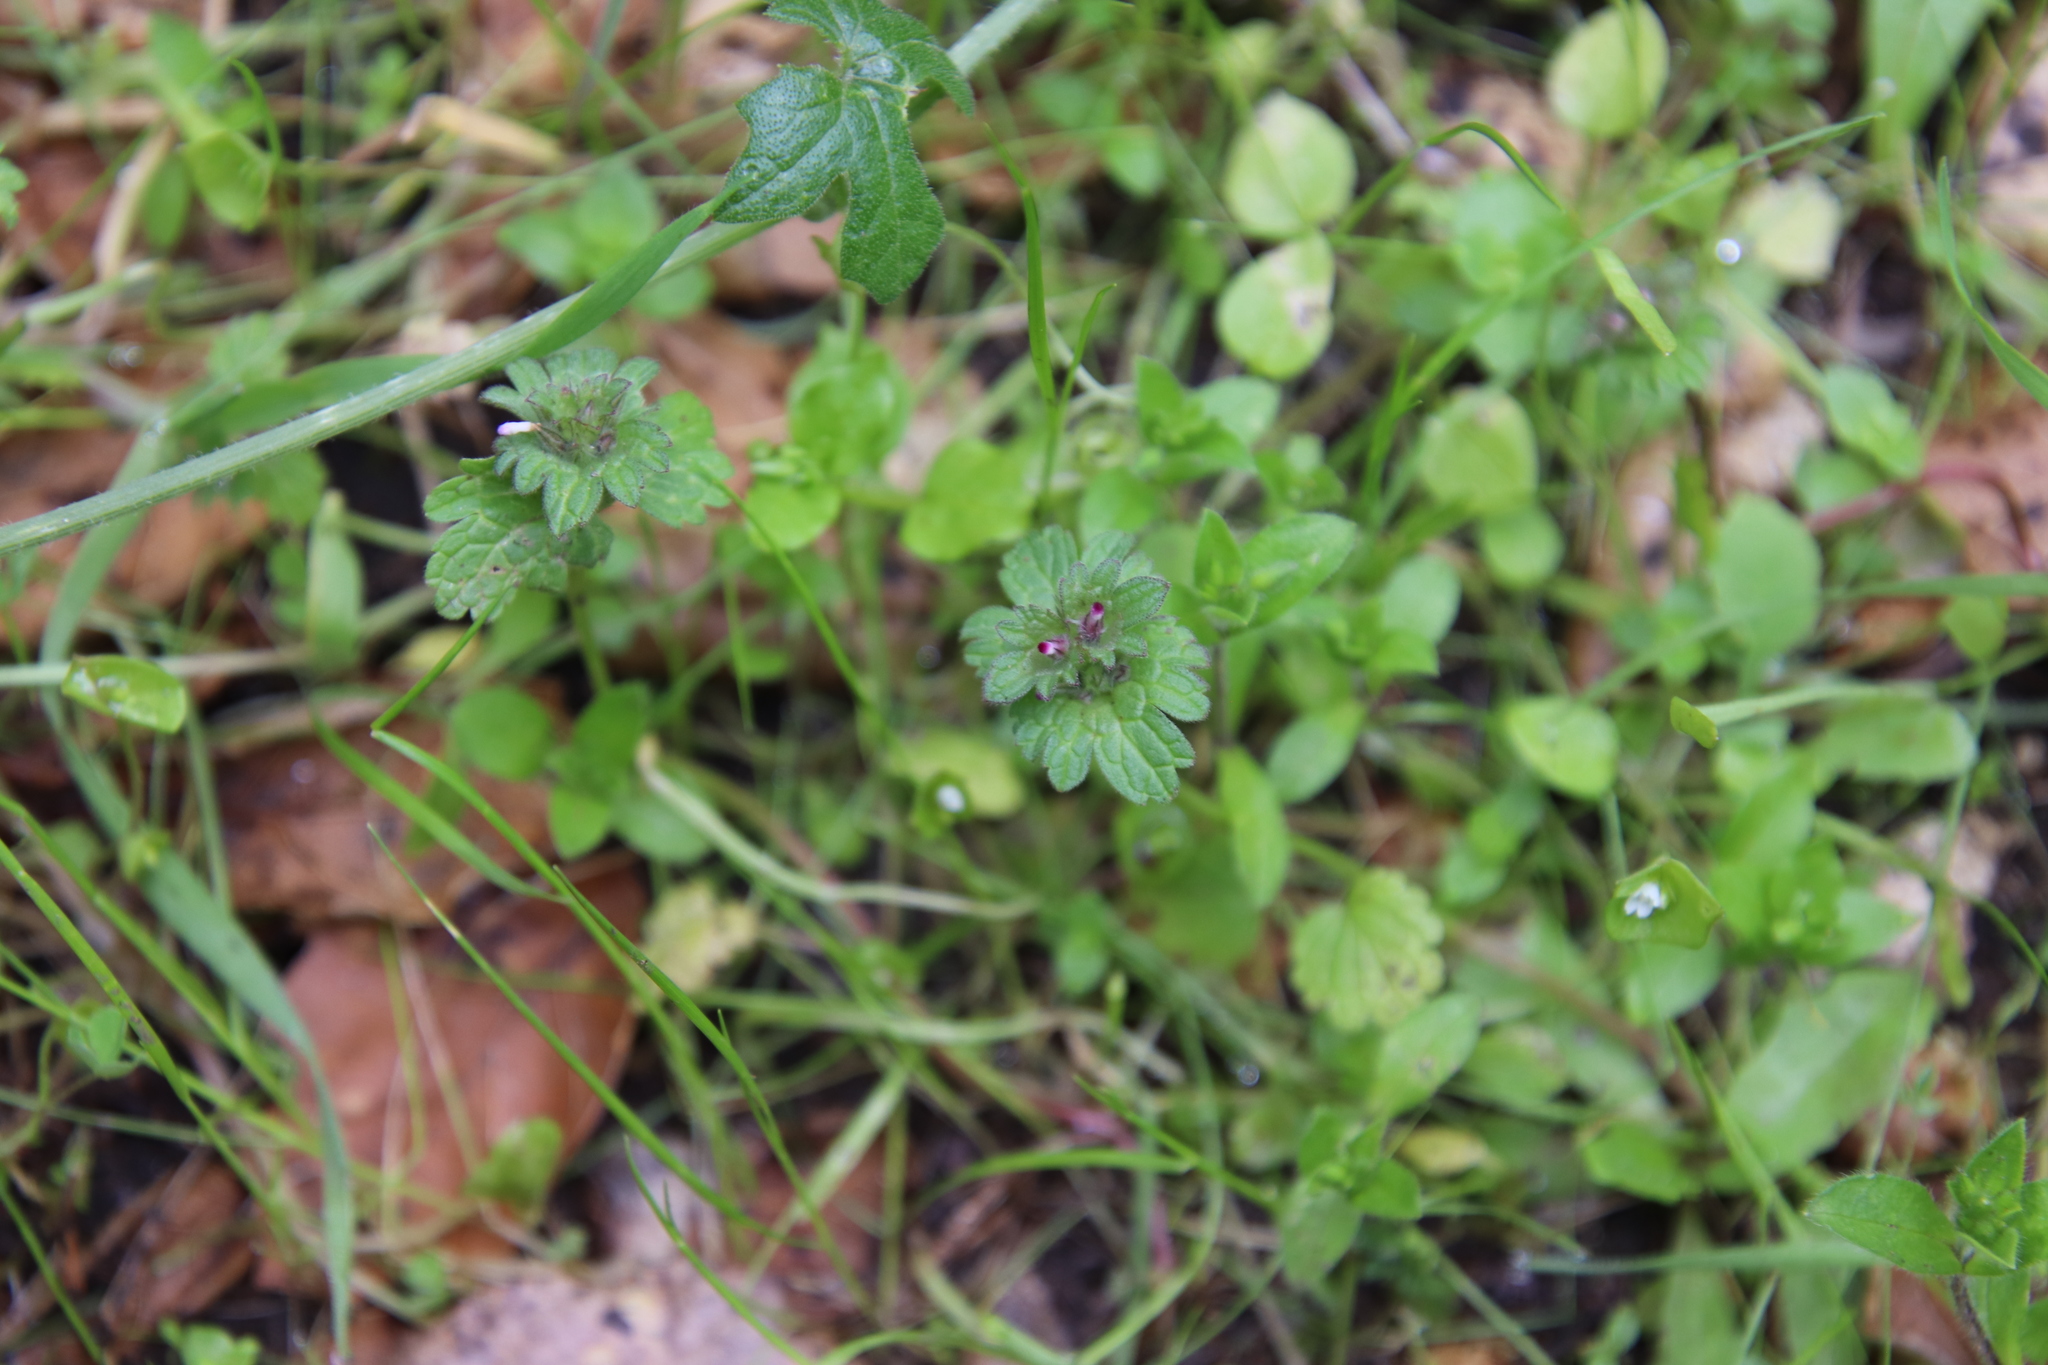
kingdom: Plantae
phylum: Tracheophyta
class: Magnoliopsida
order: Lamiales
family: Lamiaceae
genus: Lamium
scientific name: Lamium amplexicaule
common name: Henbit dead-nettle
